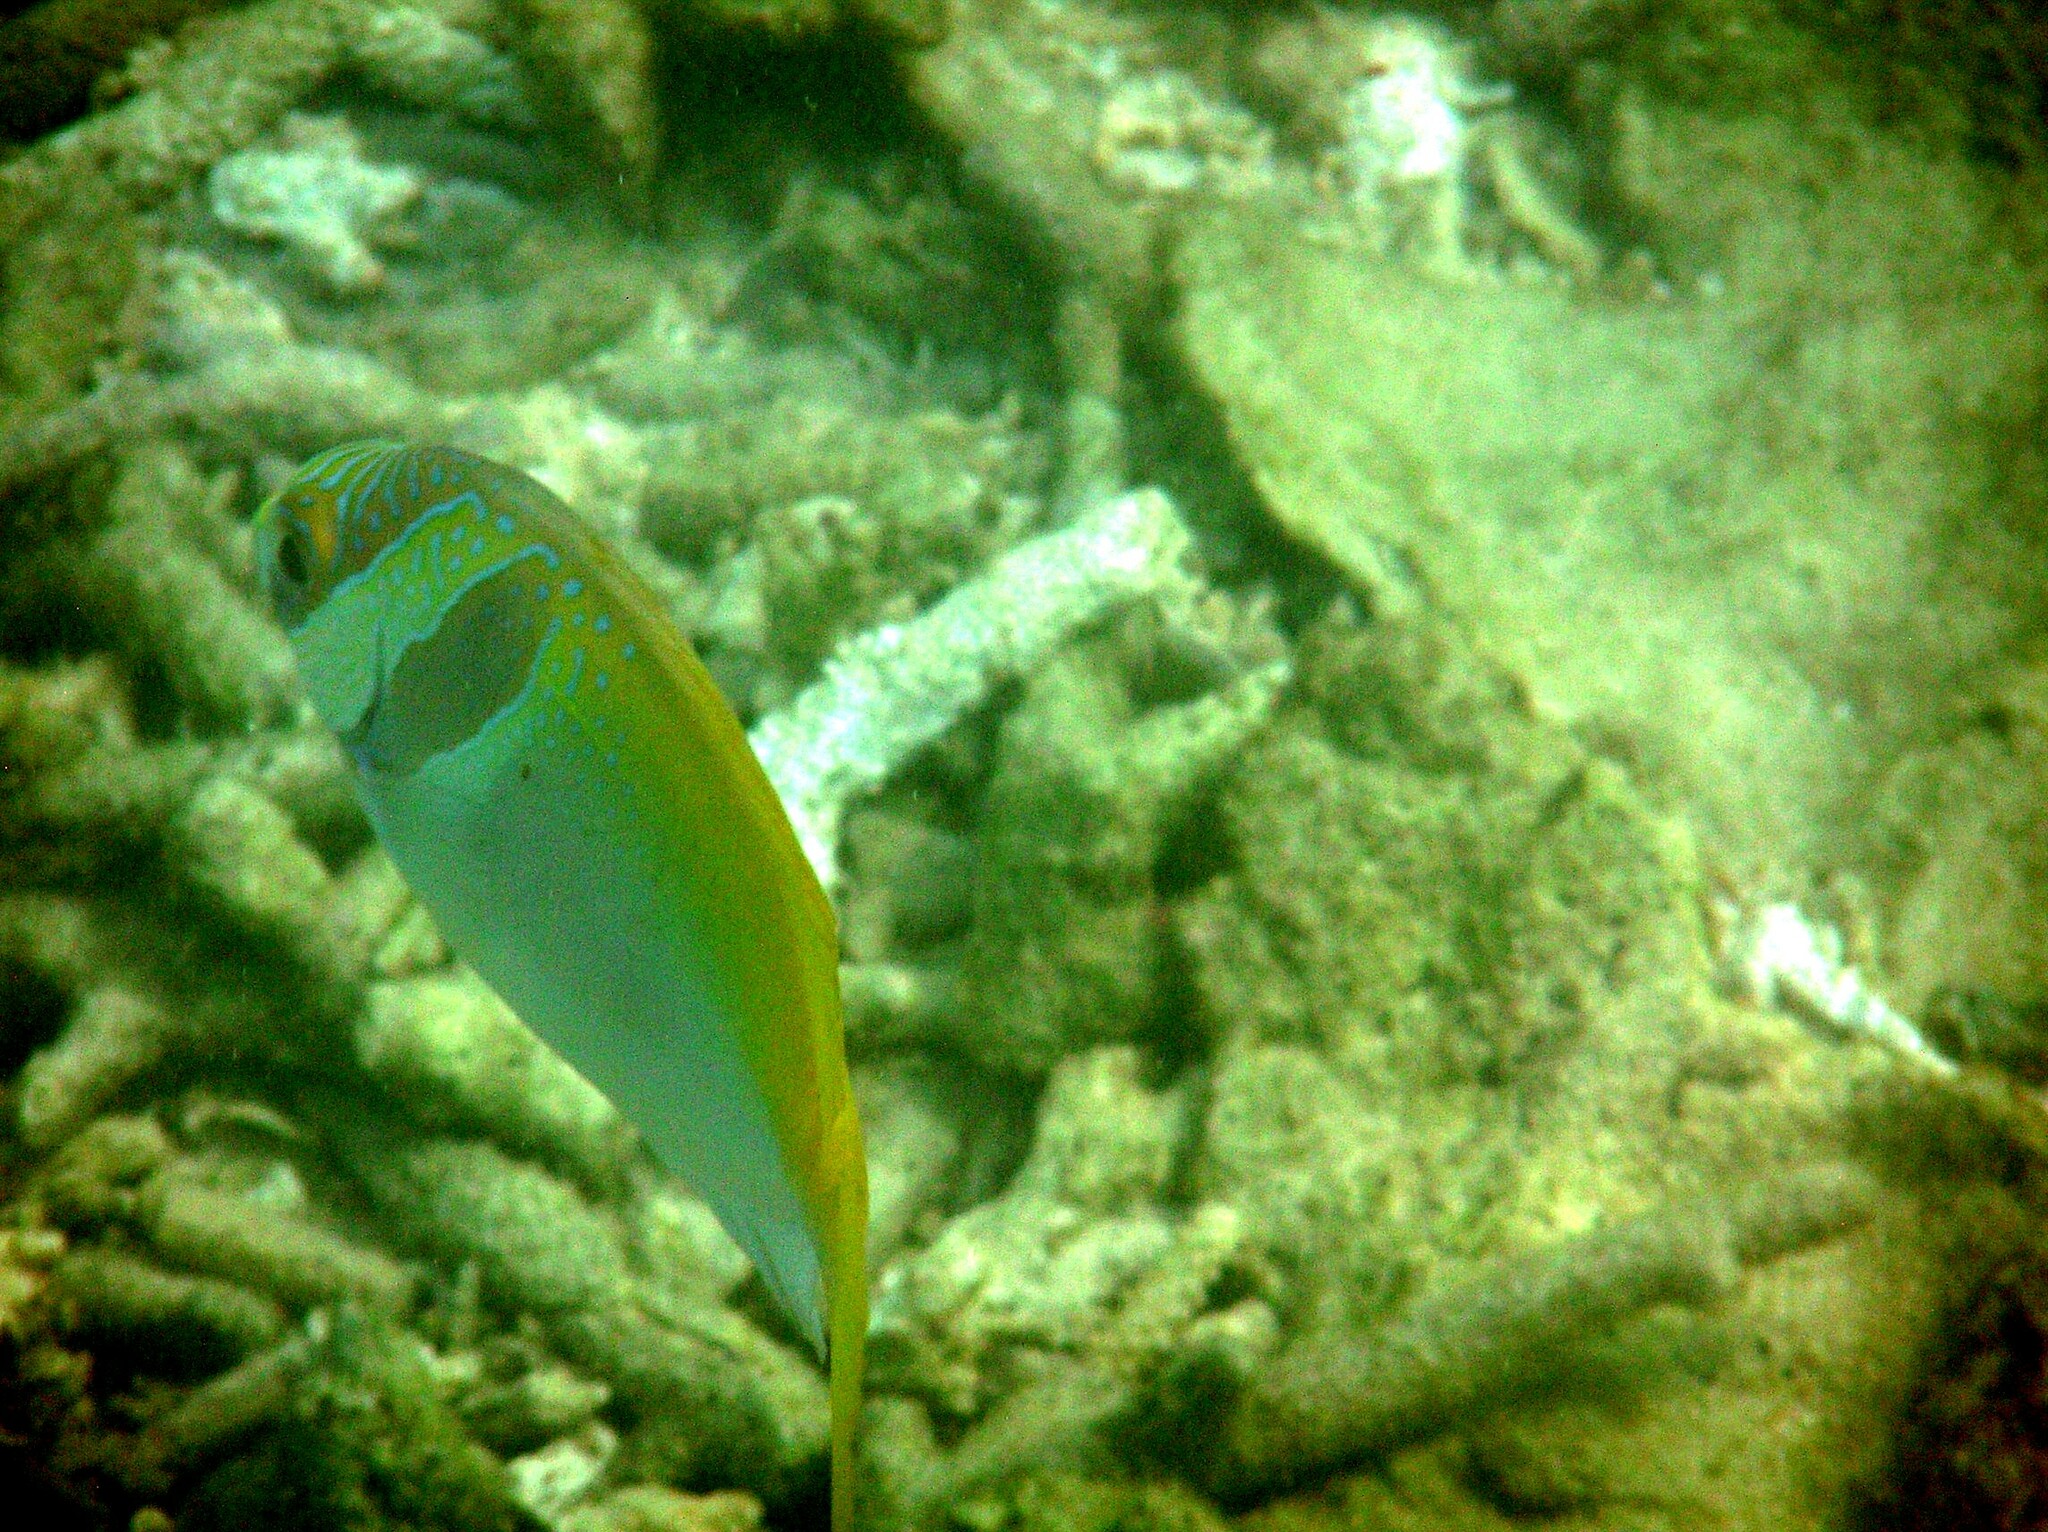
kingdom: Animalia
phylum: Chordata
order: Perciformes
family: Siganidae
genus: Siganus
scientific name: Siganus virgatus
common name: Barhead spinefoot
